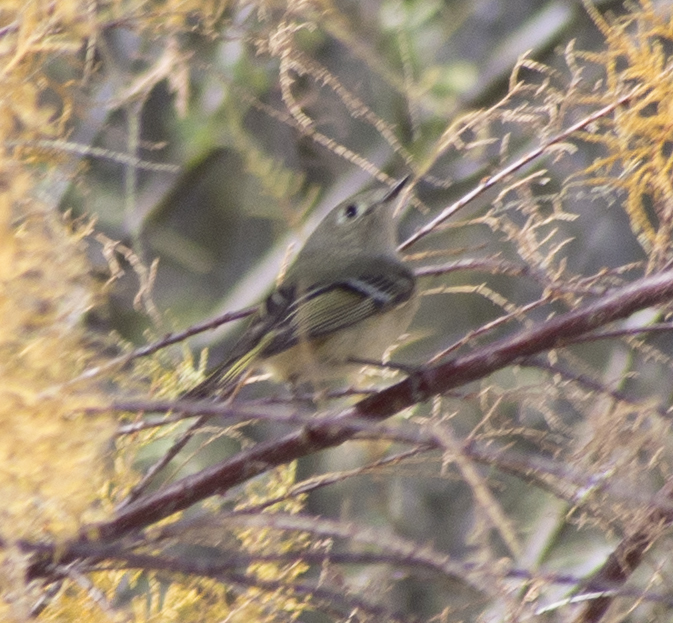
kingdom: Animalia
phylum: Chordata
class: Aves
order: Passeriformes
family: Regulidae
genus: Regulus
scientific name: Regulus calendula
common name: Ruby-crowned kinglet
